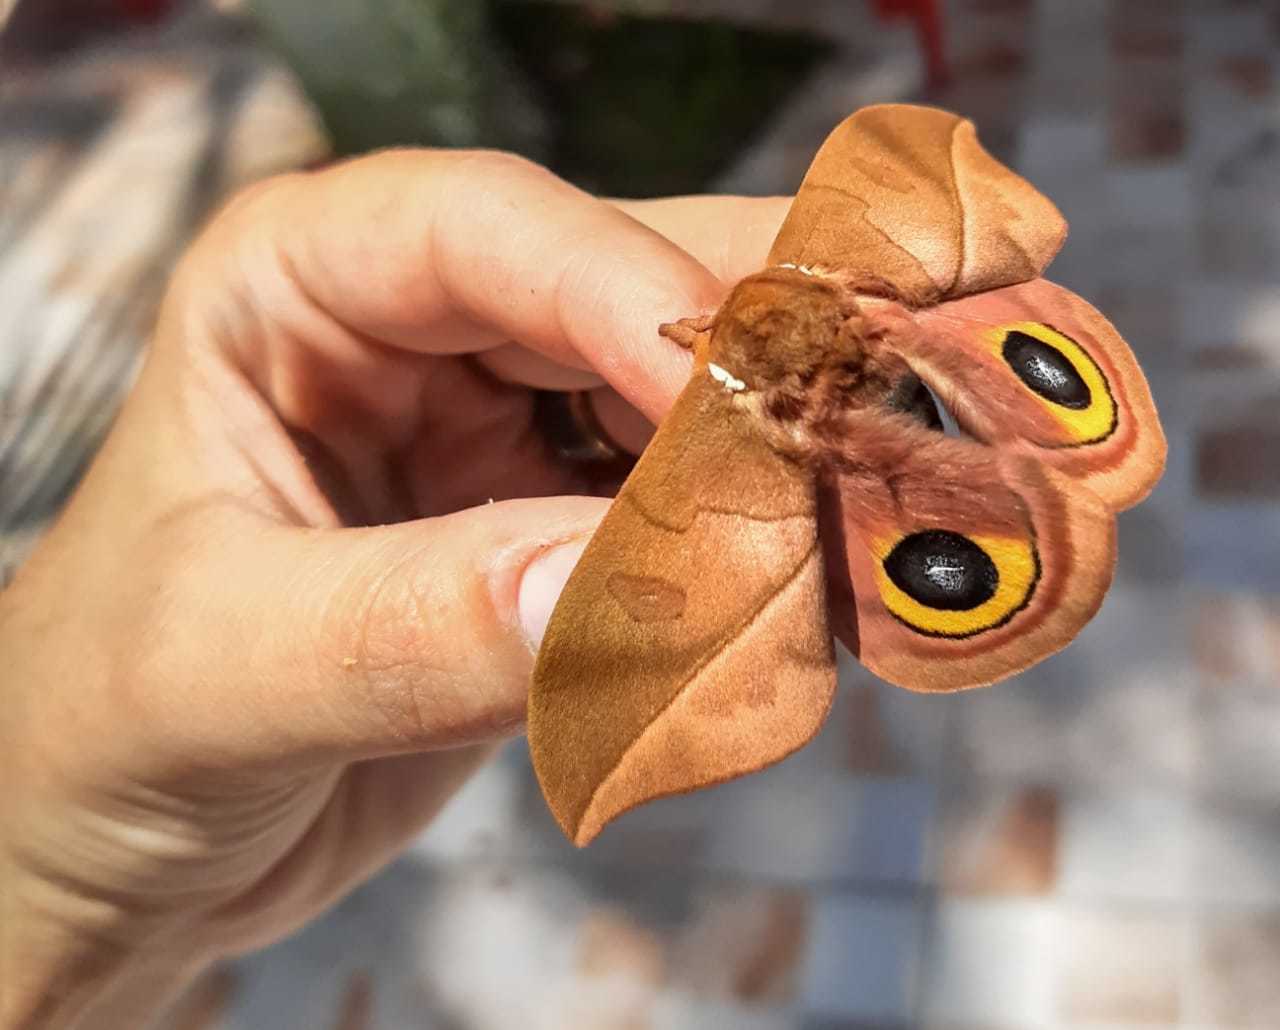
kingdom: Animalia
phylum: Arthropoda
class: Insecta
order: Lepidoptera
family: Saturniidae
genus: Automeris
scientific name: Automeris melanops
